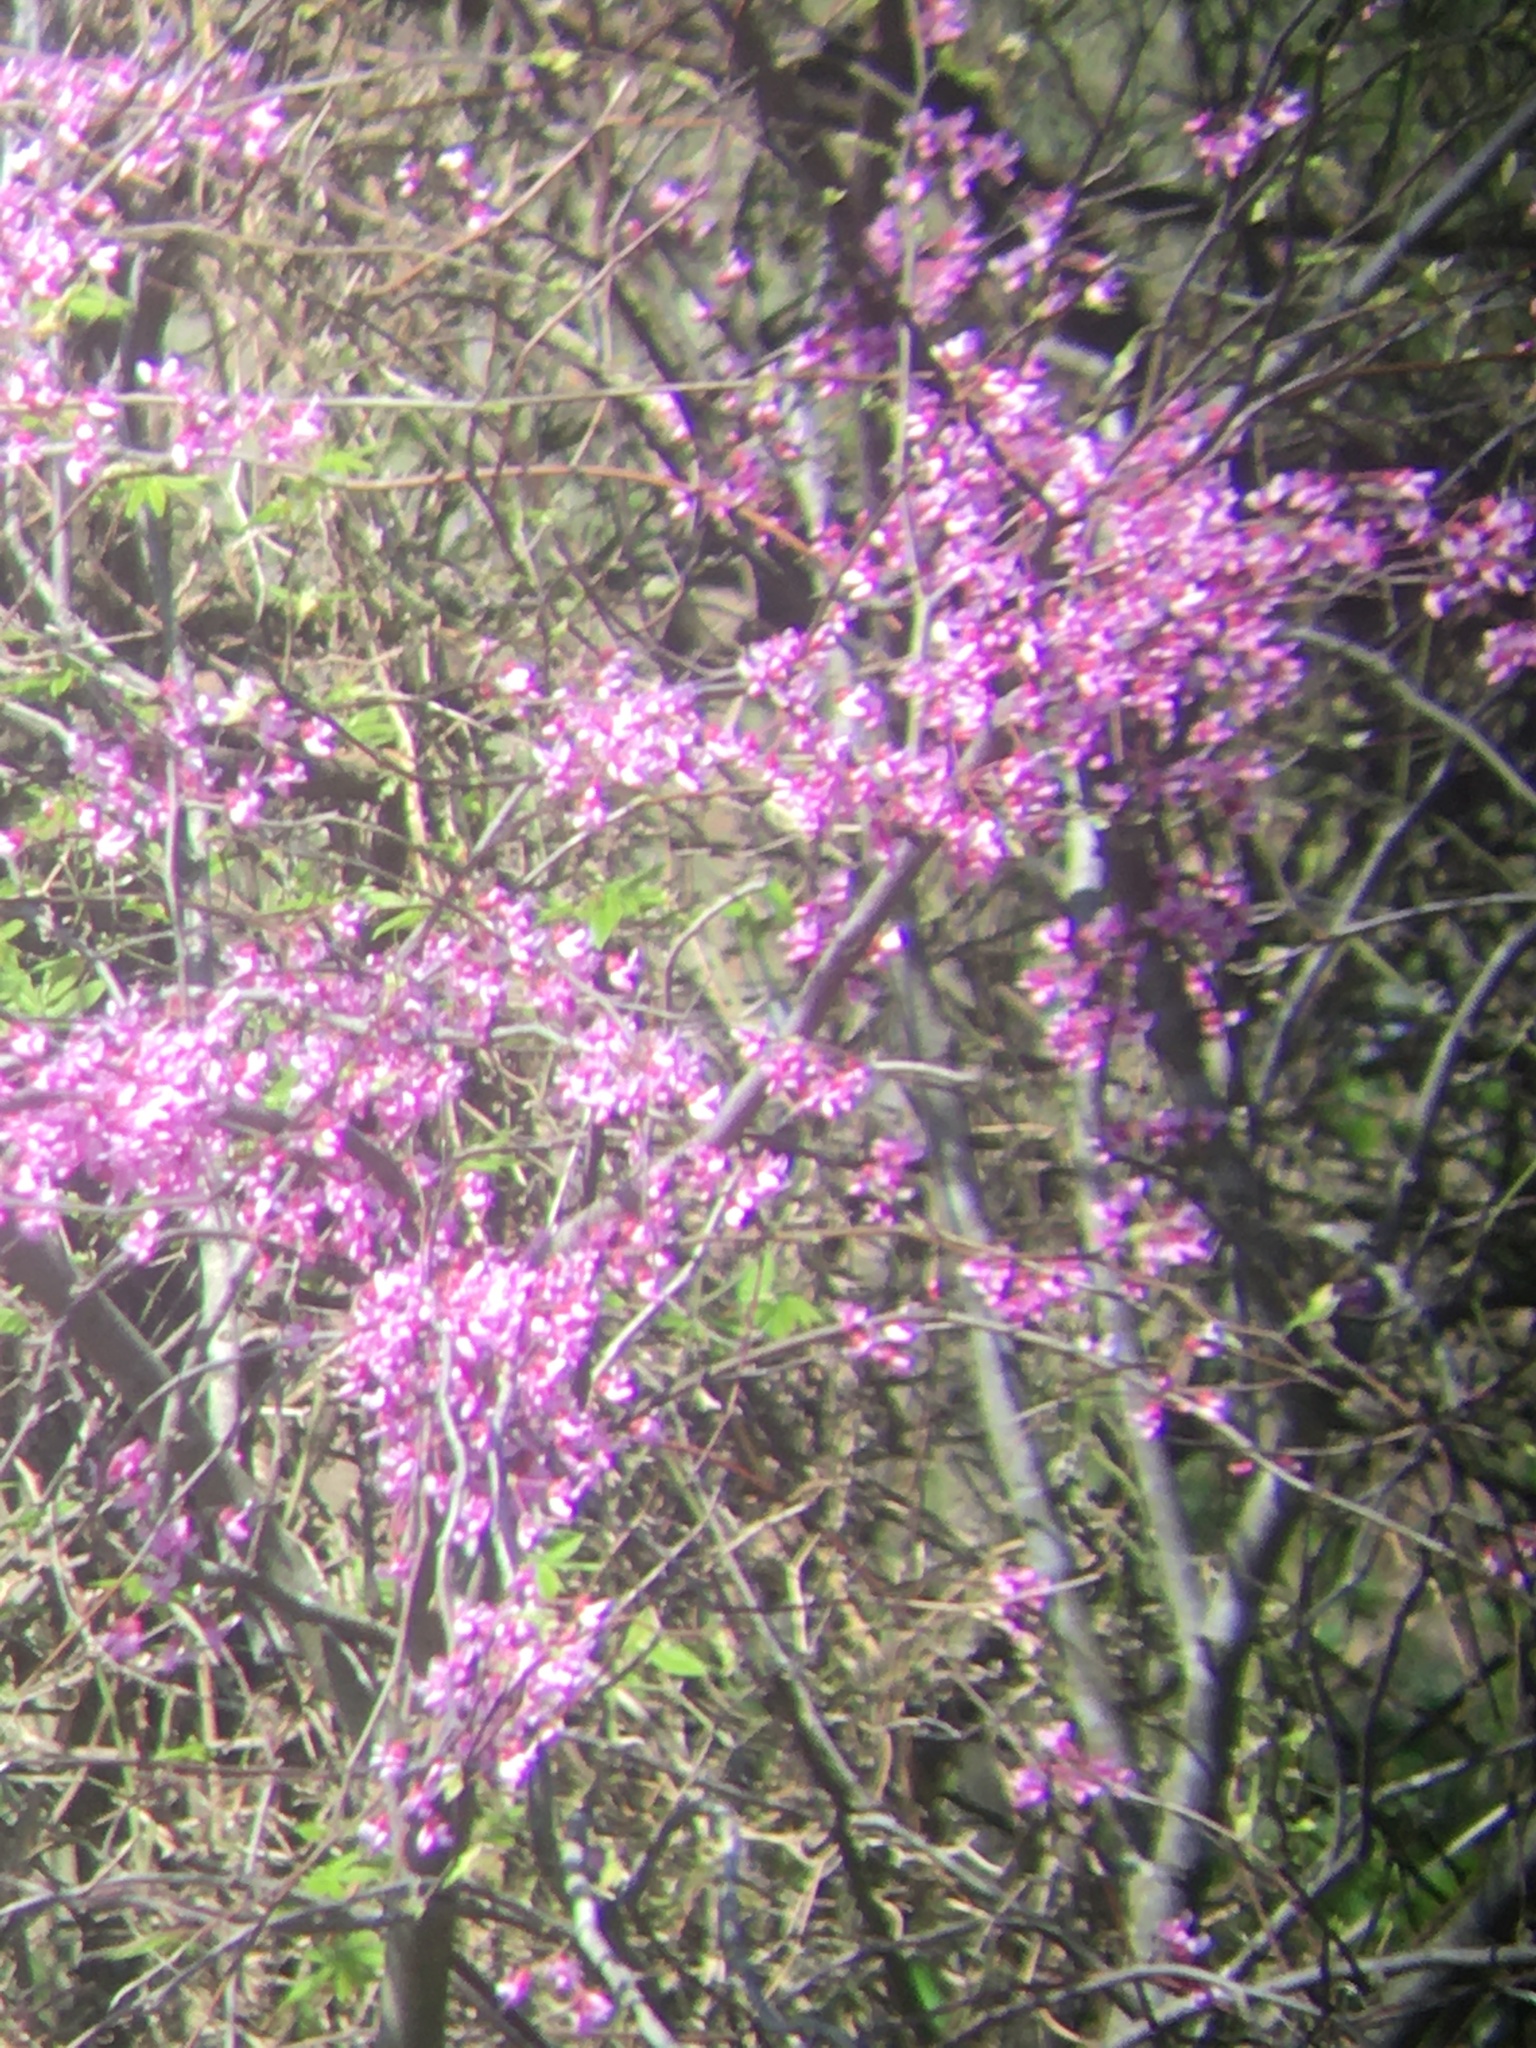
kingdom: Plantae
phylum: Tracheophyta
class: Magnoliopsida
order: Fabales
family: Fabaceae
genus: Cercis
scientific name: Cercis canadensis
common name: Eastern redbud
